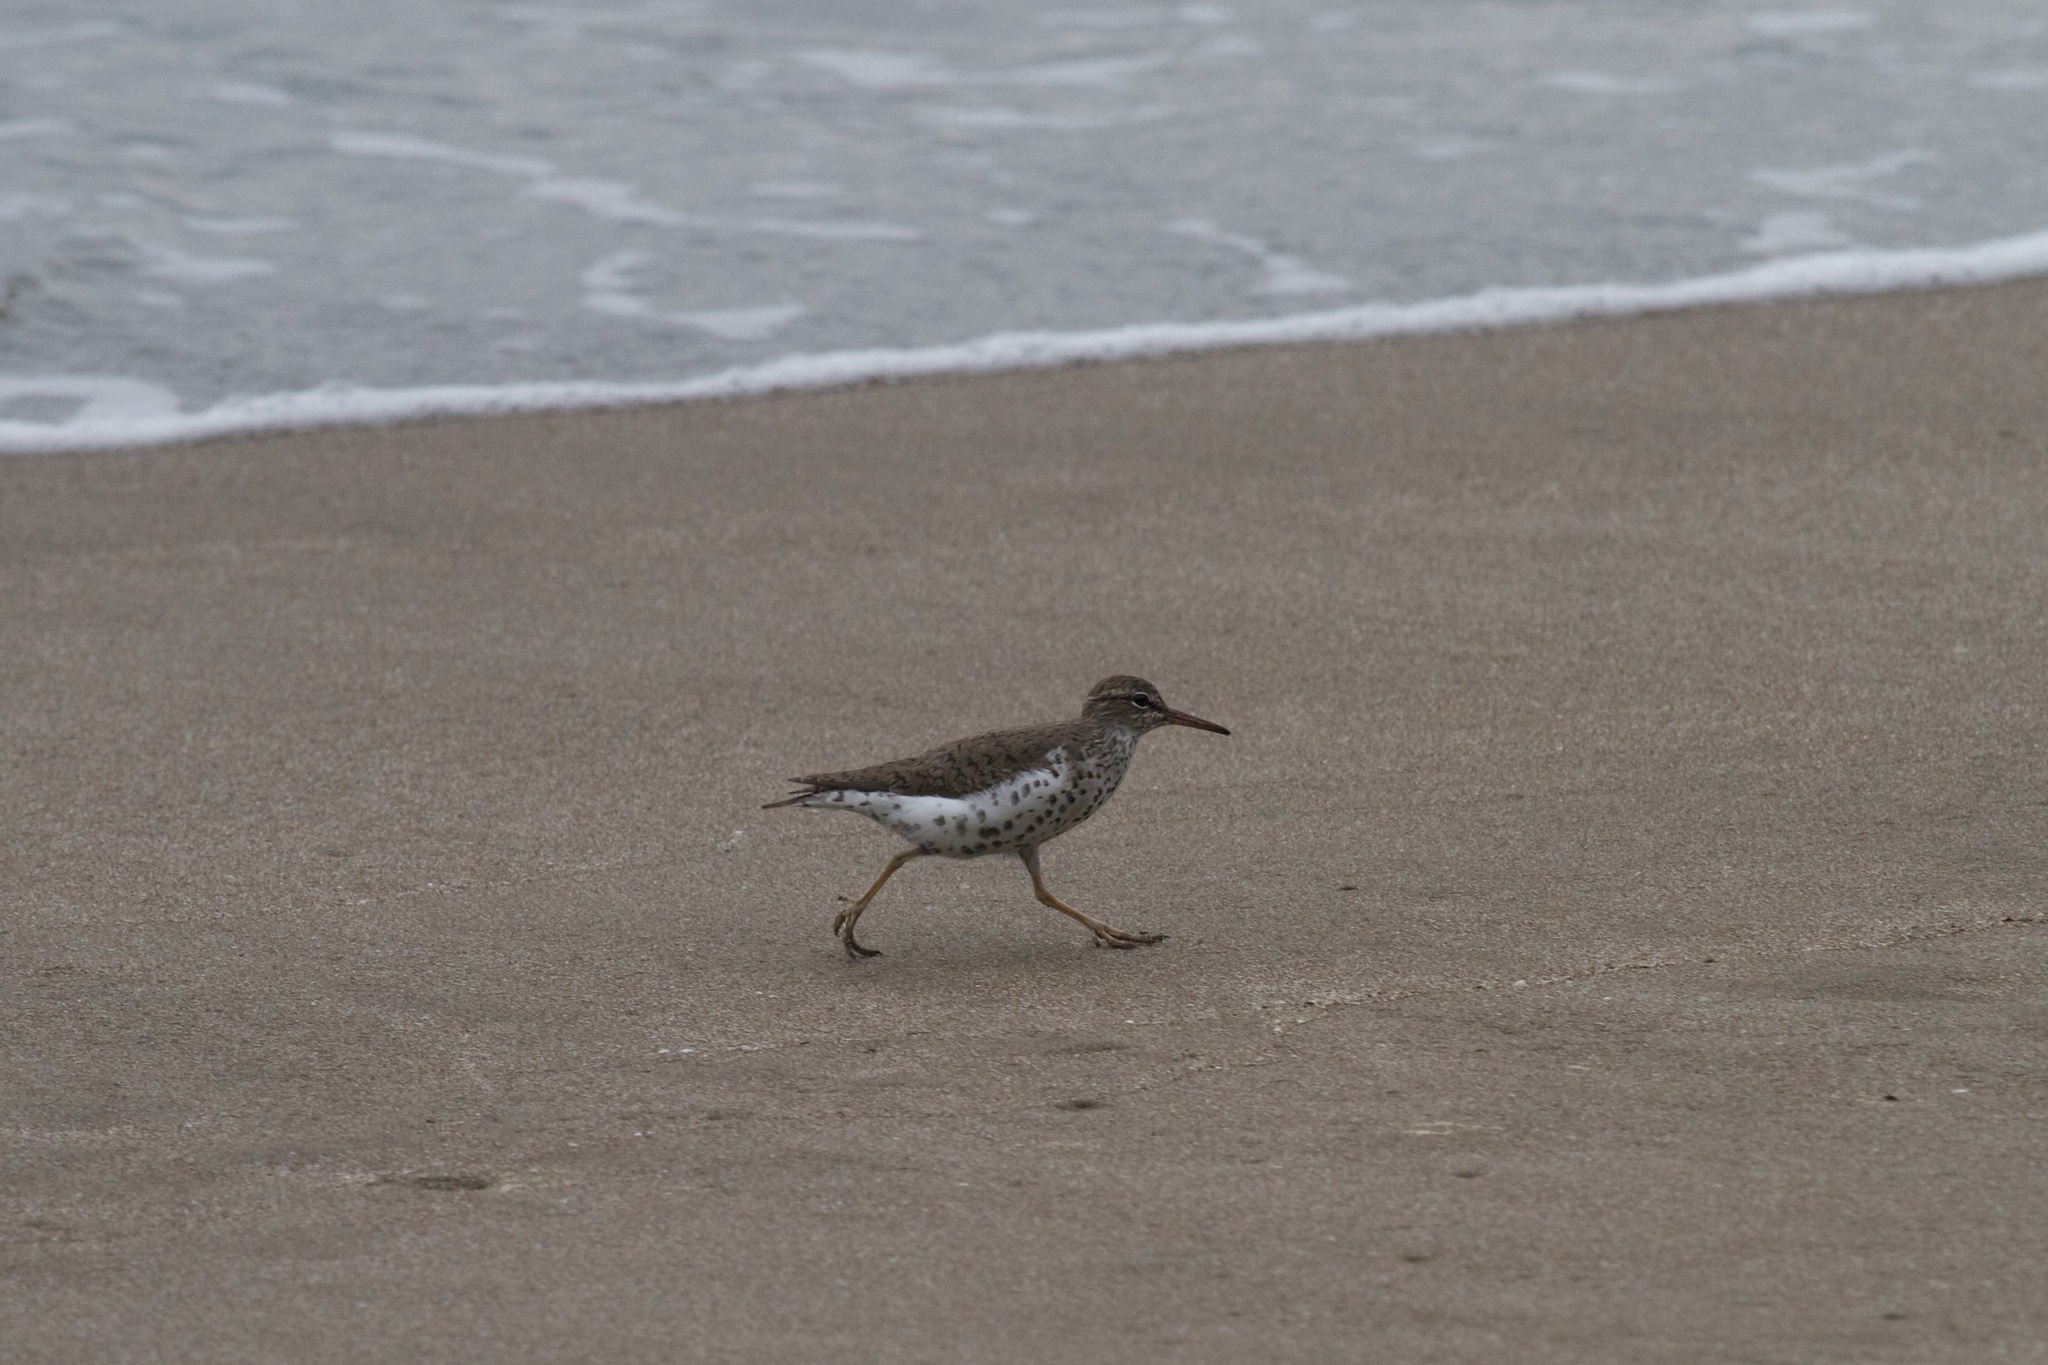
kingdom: Animalia
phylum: Chordata
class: Aves
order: Charadriiformes
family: Scolopacidae
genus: Actitis
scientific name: Actitis macularius
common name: Spotted sandpiper
